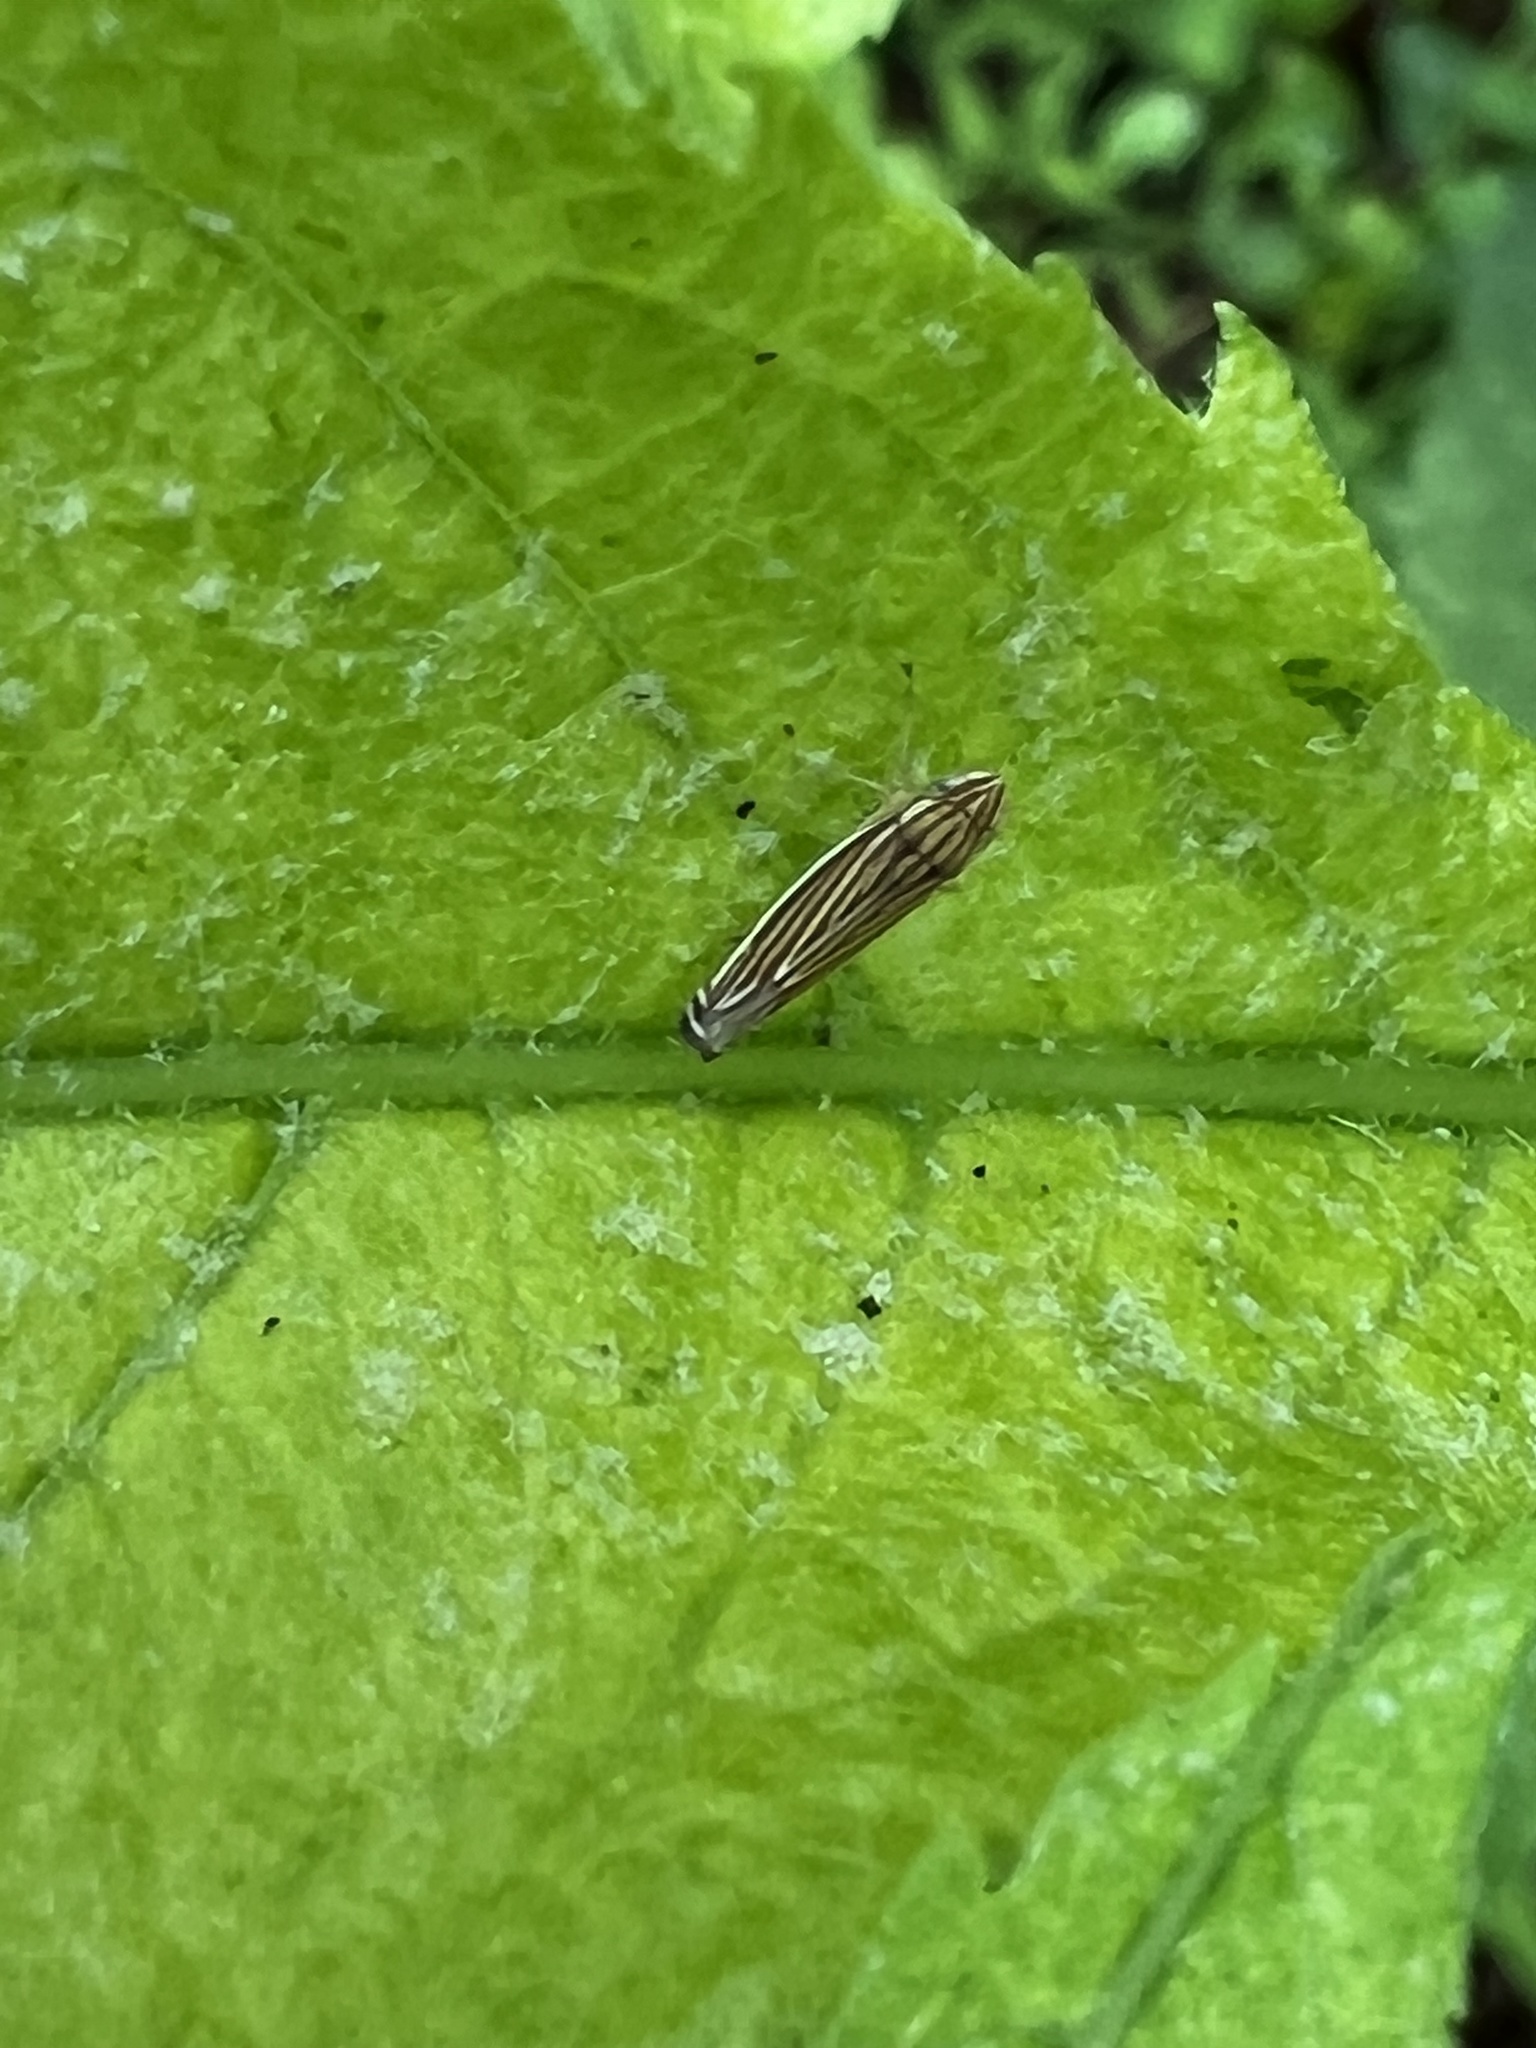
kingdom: Animalia
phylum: Arthropoda
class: Insecta
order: Hemiptera
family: Cicadellidae
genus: Sibovia
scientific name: Sibovia occatoria
